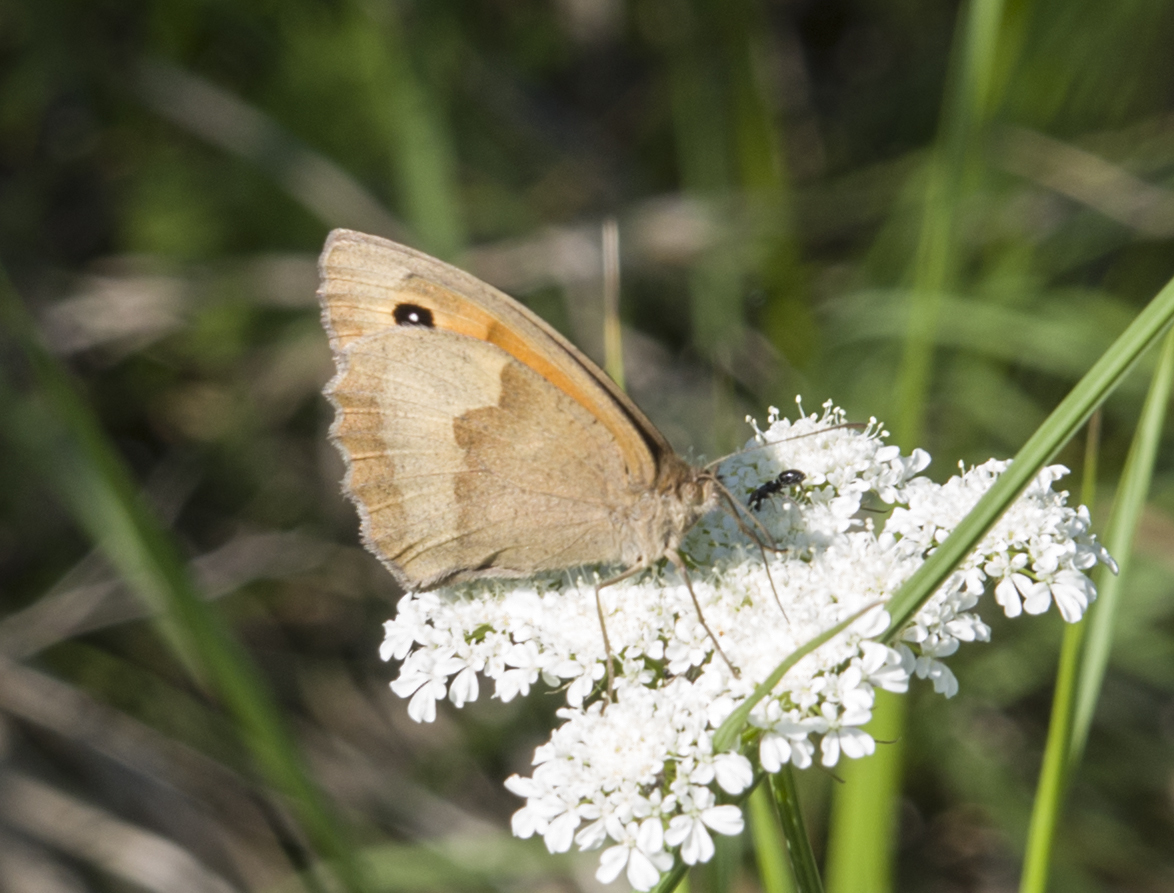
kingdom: Animalia
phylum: Arthropoda
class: Insecta
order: Lepidoptera
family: Nymphalidae
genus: Maniola
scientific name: Maniola jurtina
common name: Meadow brown
